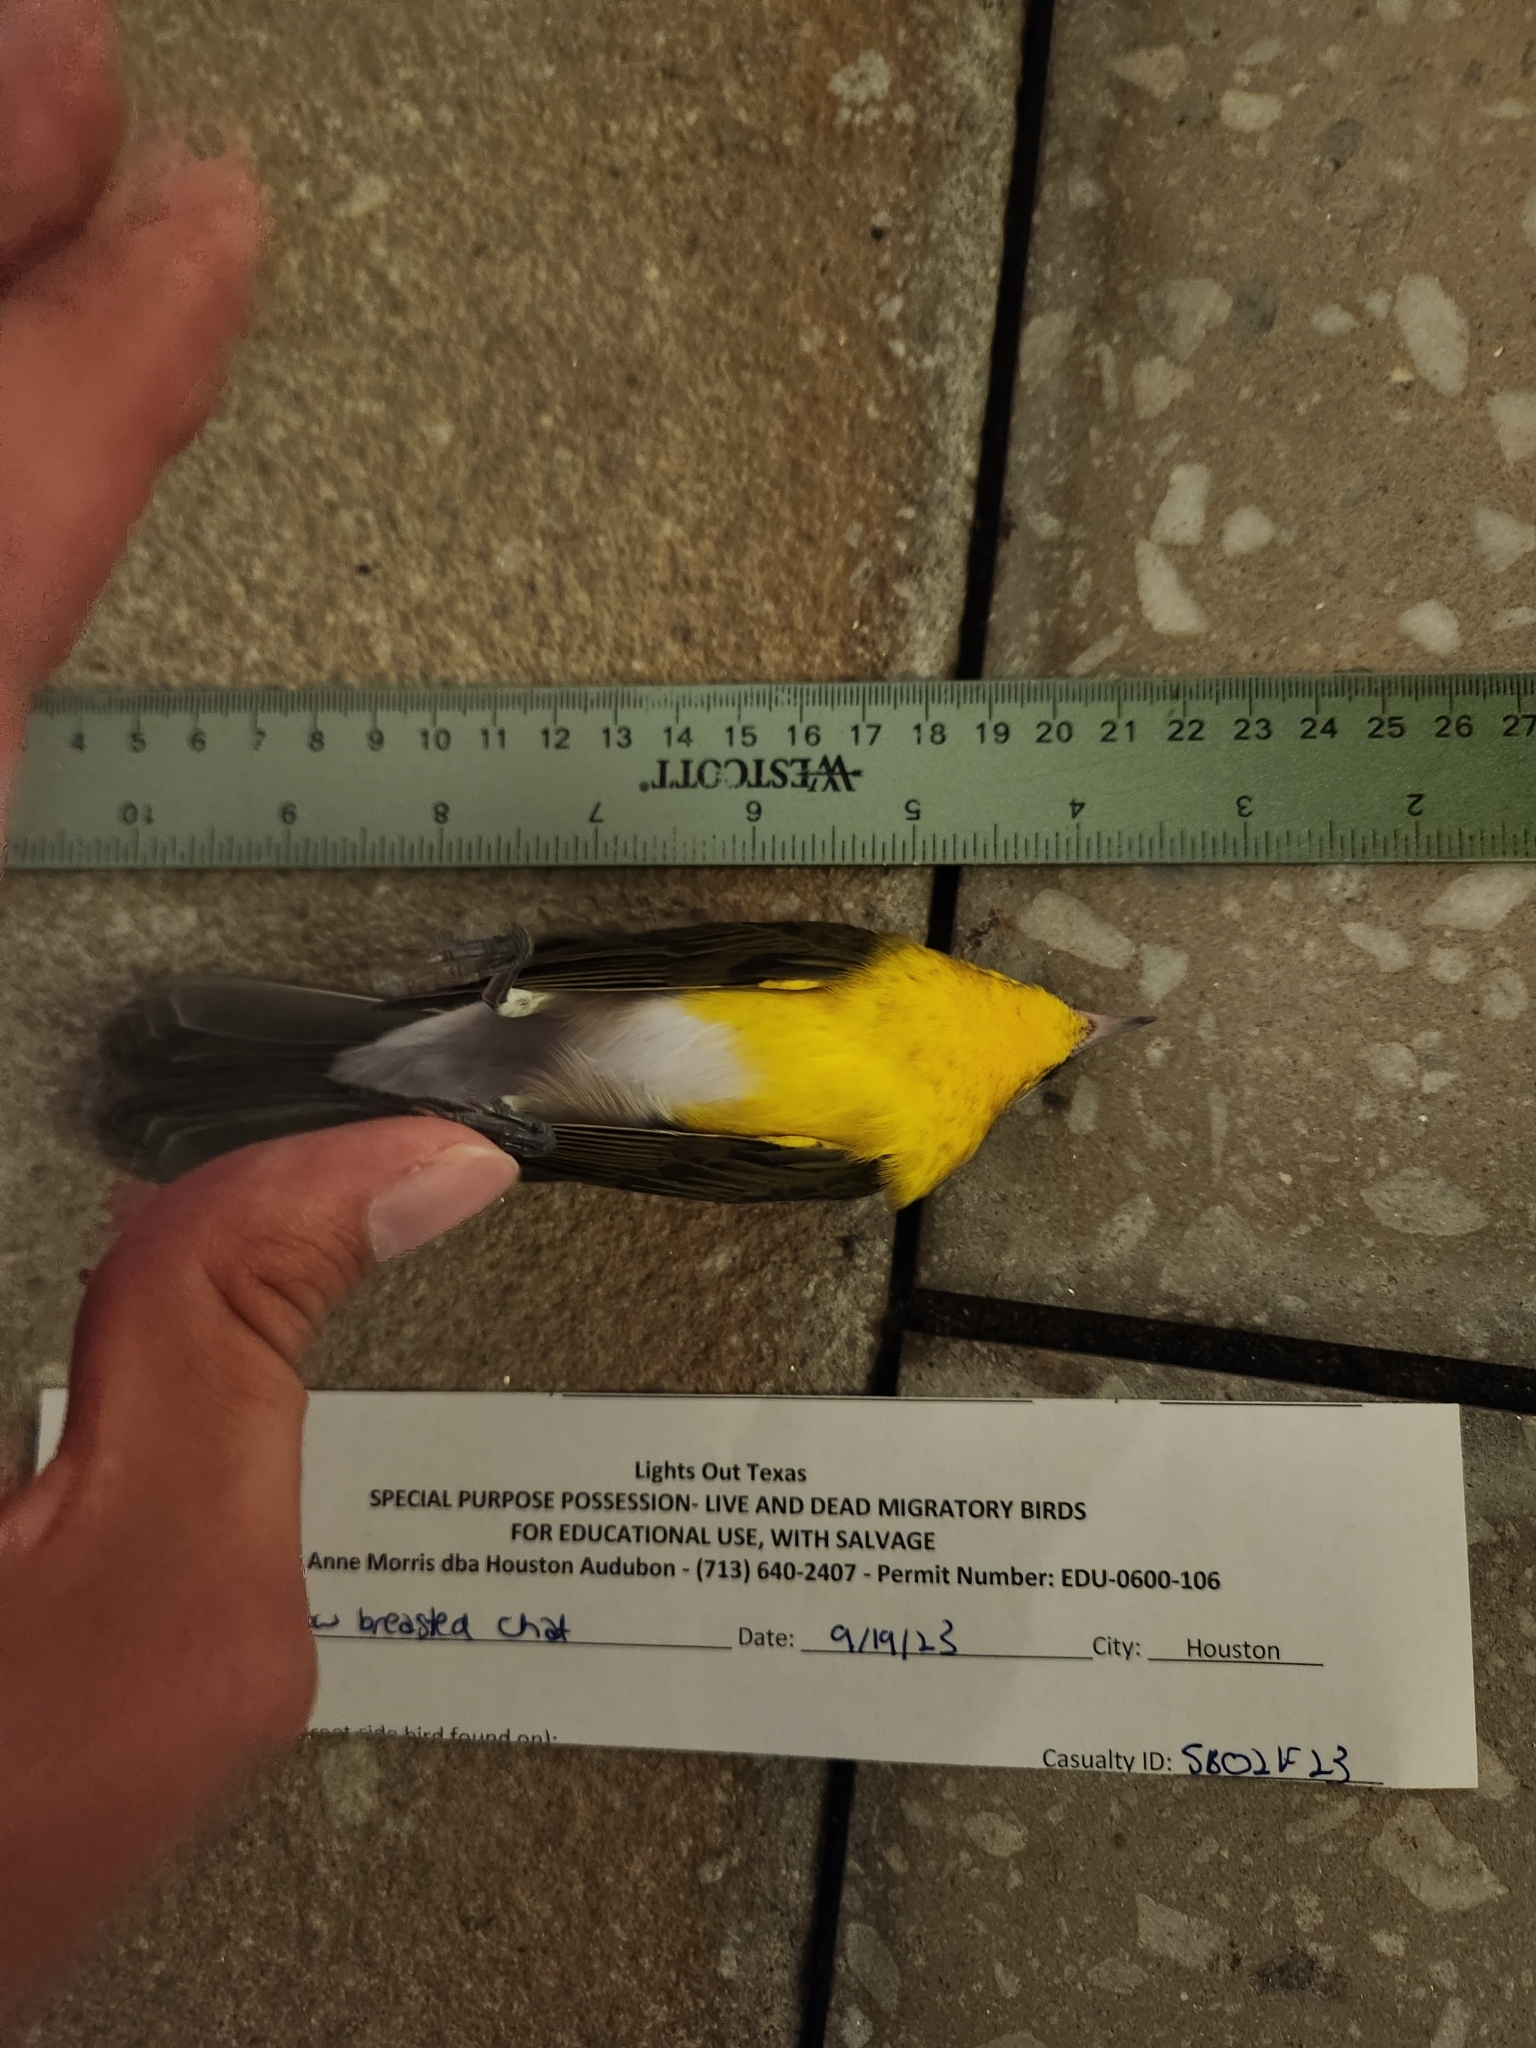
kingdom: Animalia
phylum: Chordata
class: Aves
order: Passeriformes
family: Parulidae
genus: Icteria
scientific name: Icteria virens
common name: Yellow-breasted chat
